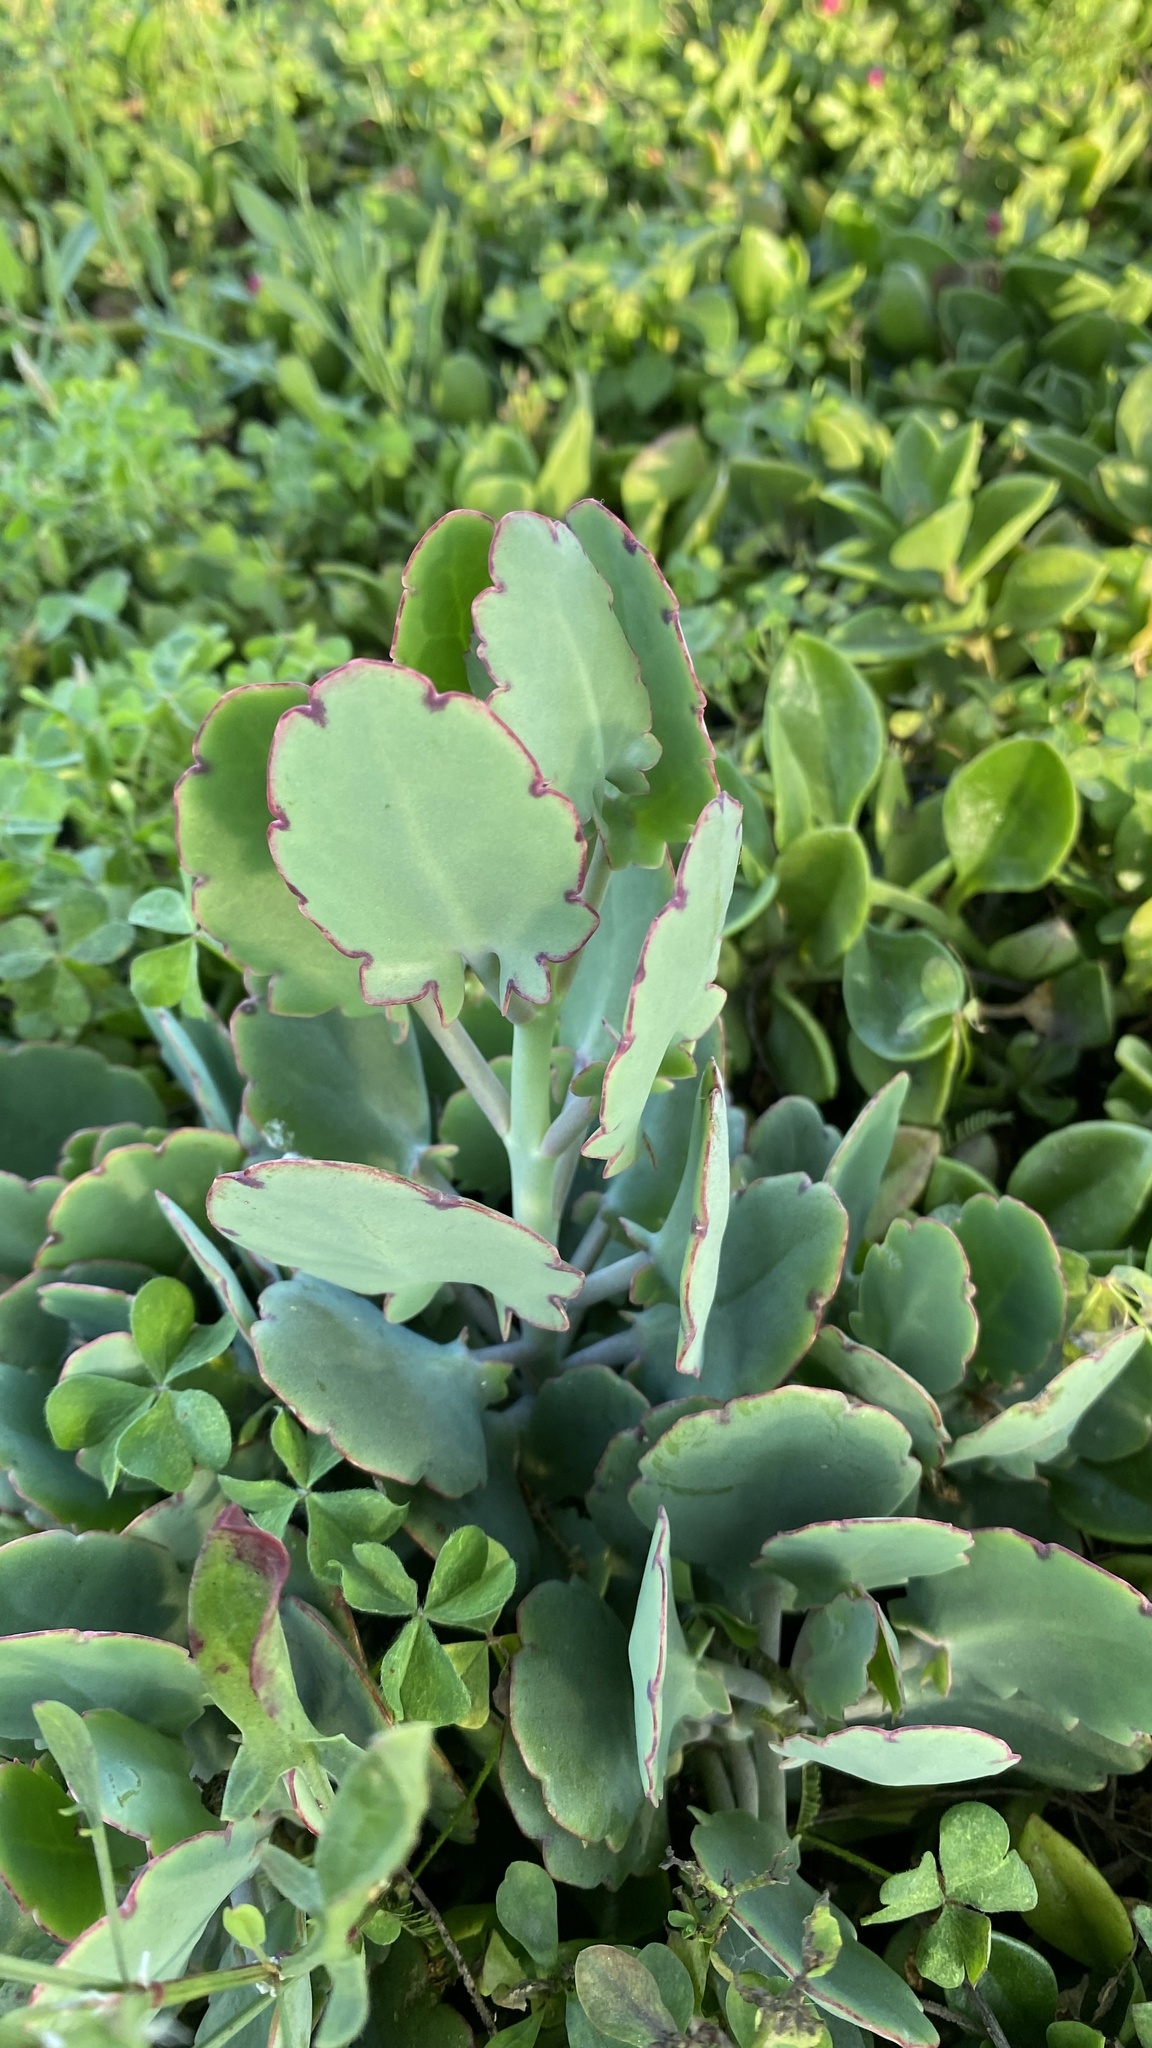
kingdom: Plantae
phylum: Tracheophyta
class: Magnoliopsida
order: Saxifragales
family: Crassulaceae
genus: Kalanchoe
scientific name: Kalanchoe laxiflora
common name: Milky widow's thrill
